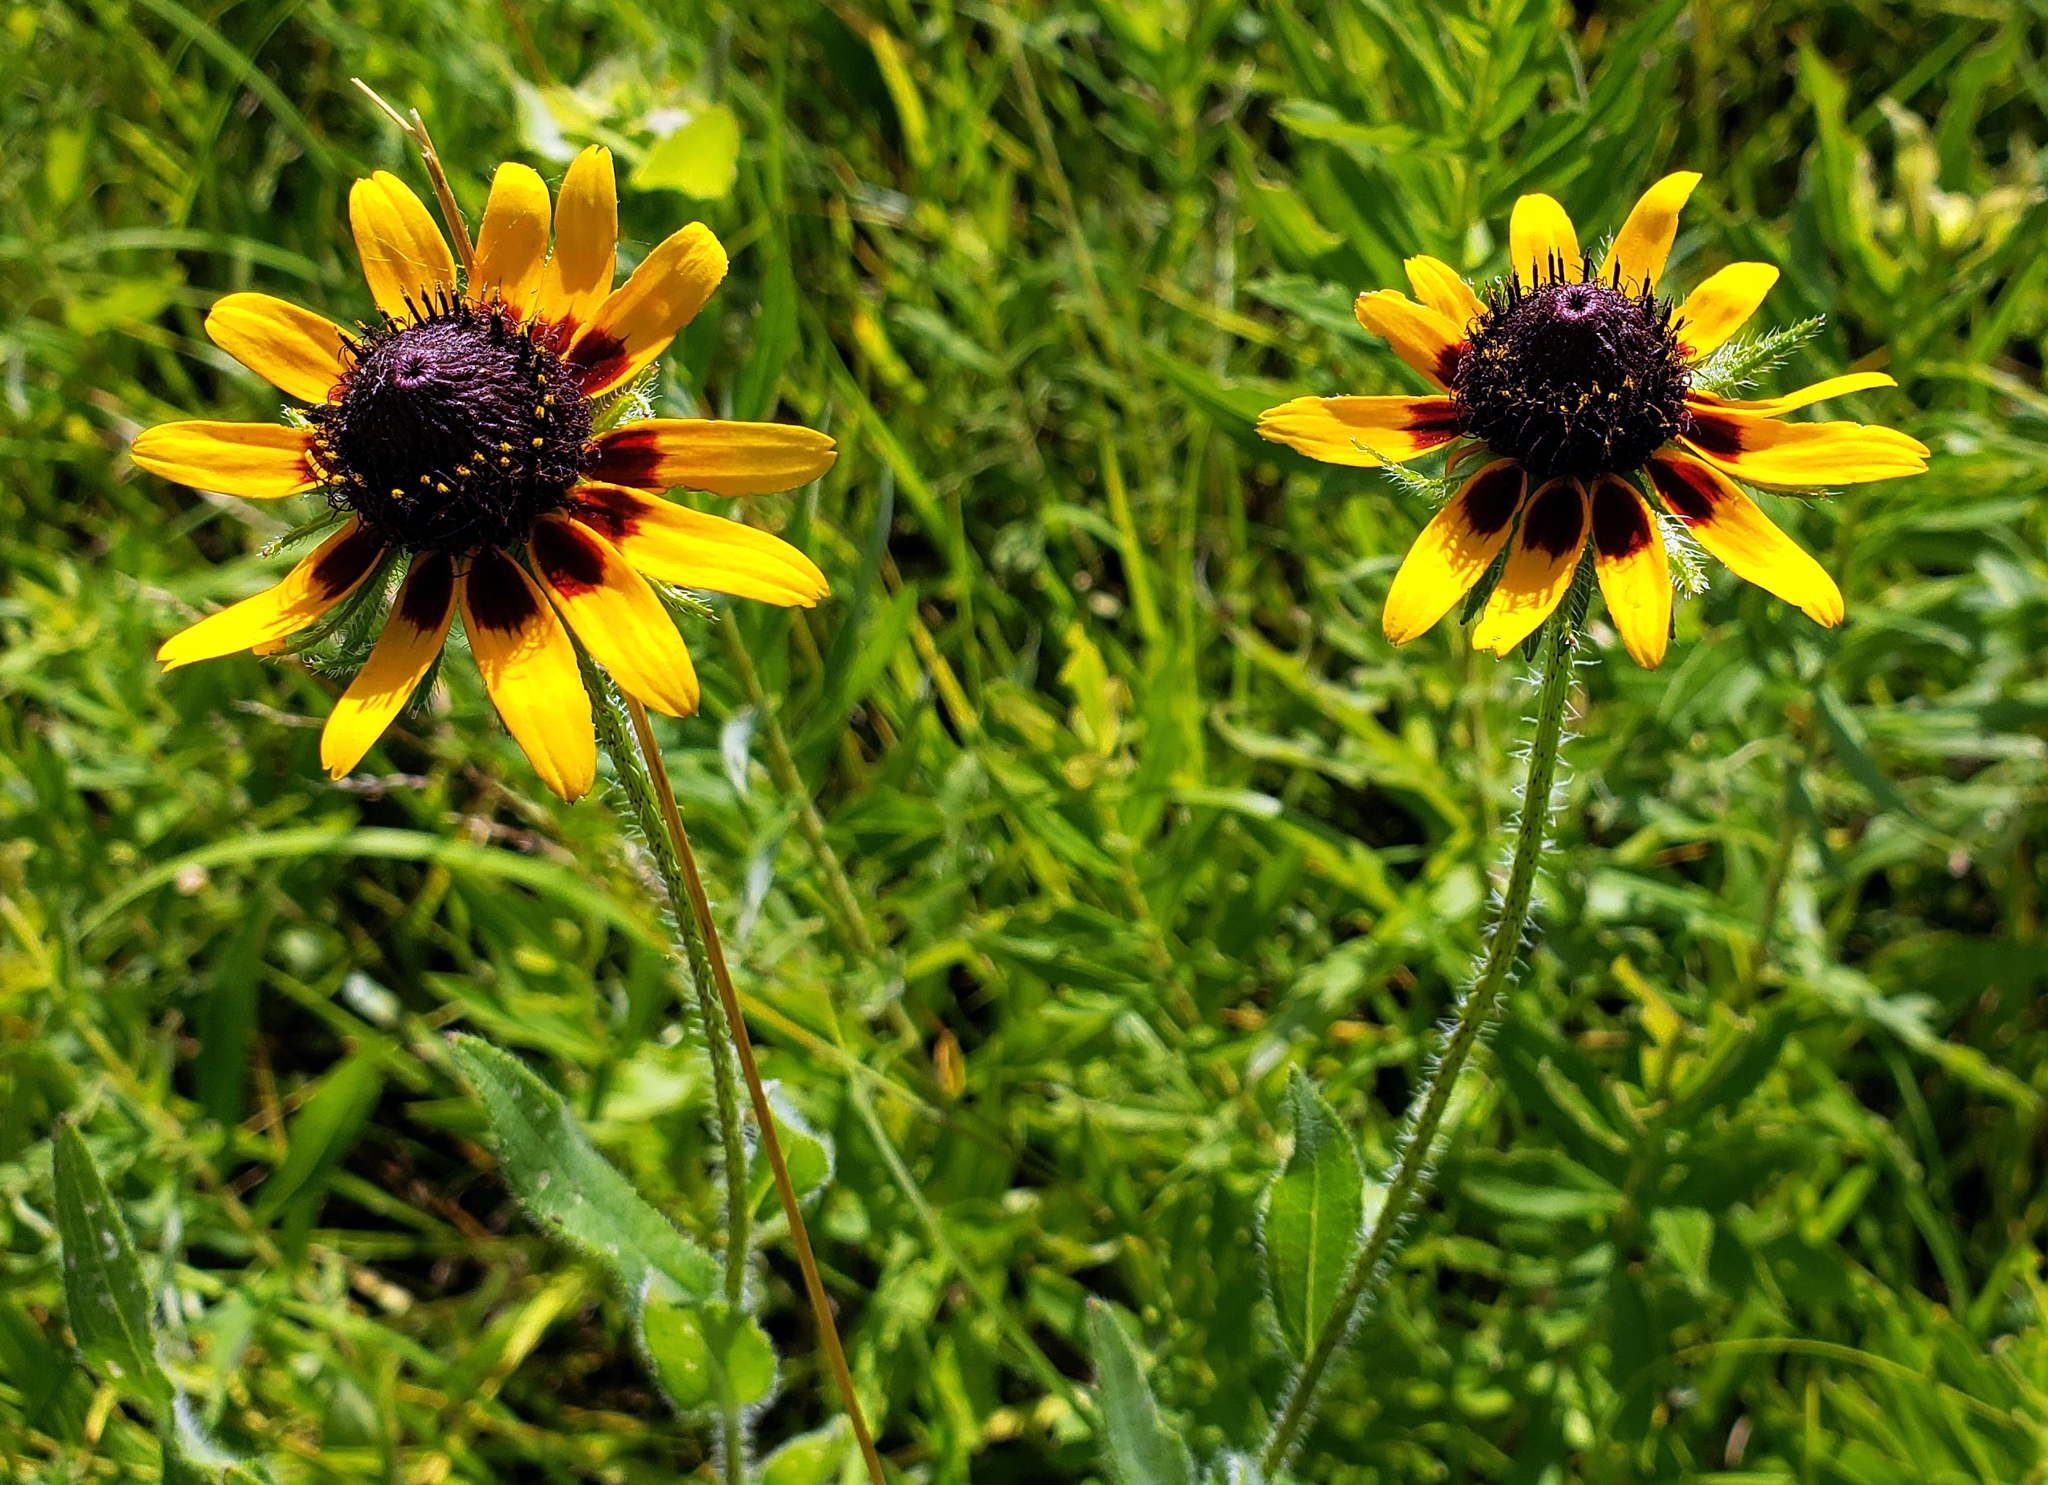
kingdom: Plantae
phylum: Tracheophyta
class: Magnoliopsida
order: Asterales
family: Asteraceae
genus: Rudbeckia
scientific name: Rudbeckia hirta
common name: Black-eyed-susan
